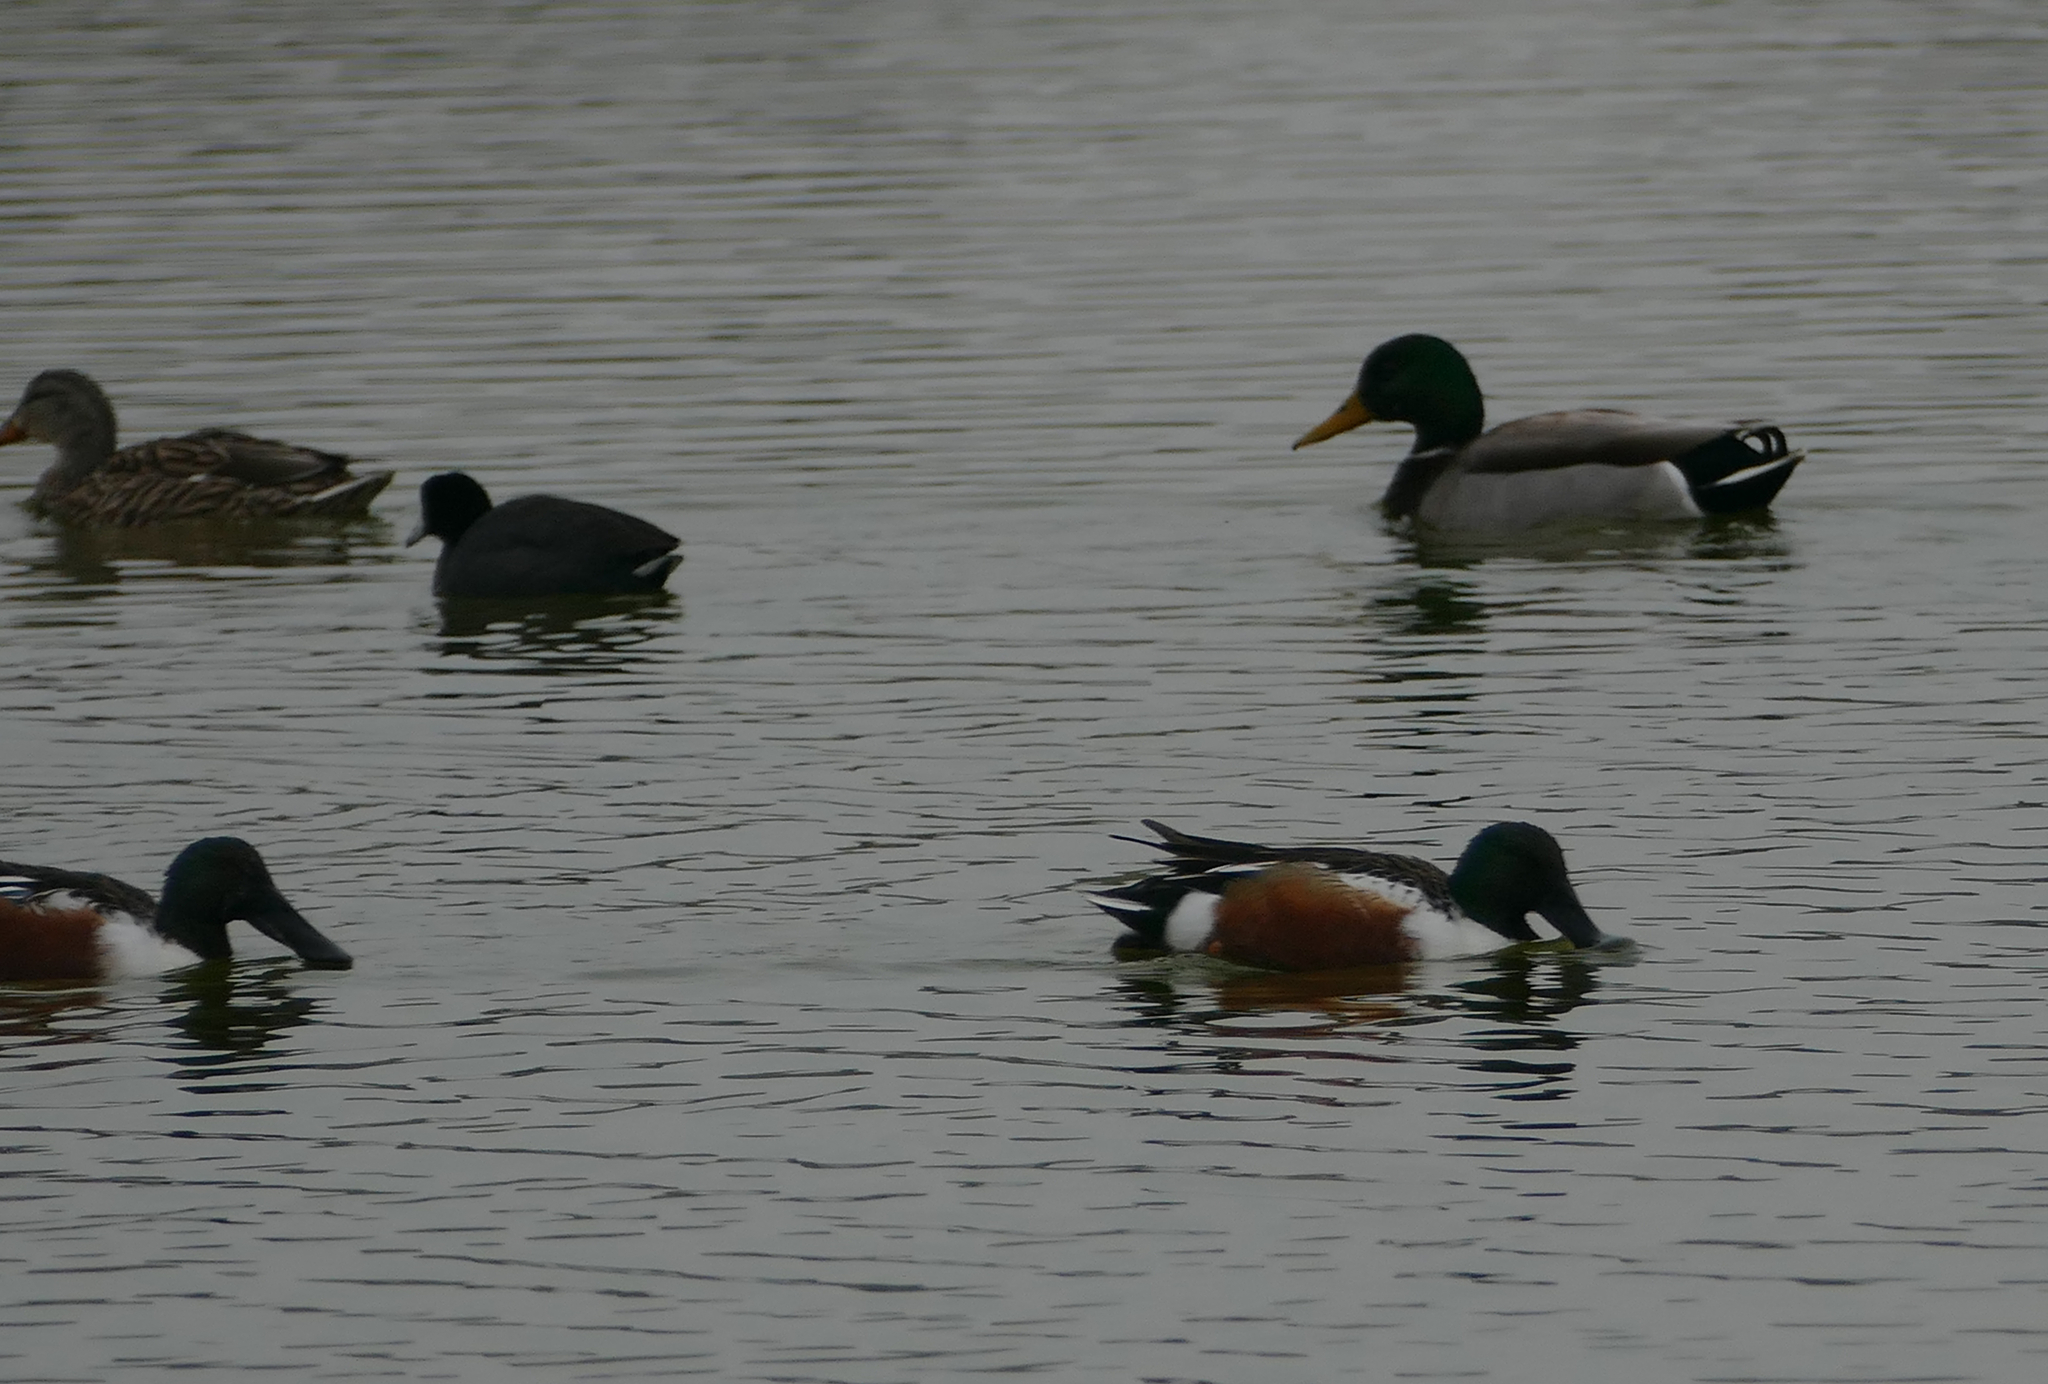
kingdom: Animalia
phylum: Chordata
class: Aves
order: Anseriformes
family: Anatidae
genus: Spatula
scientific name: Spatula clypeata
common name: Northern shoveler
